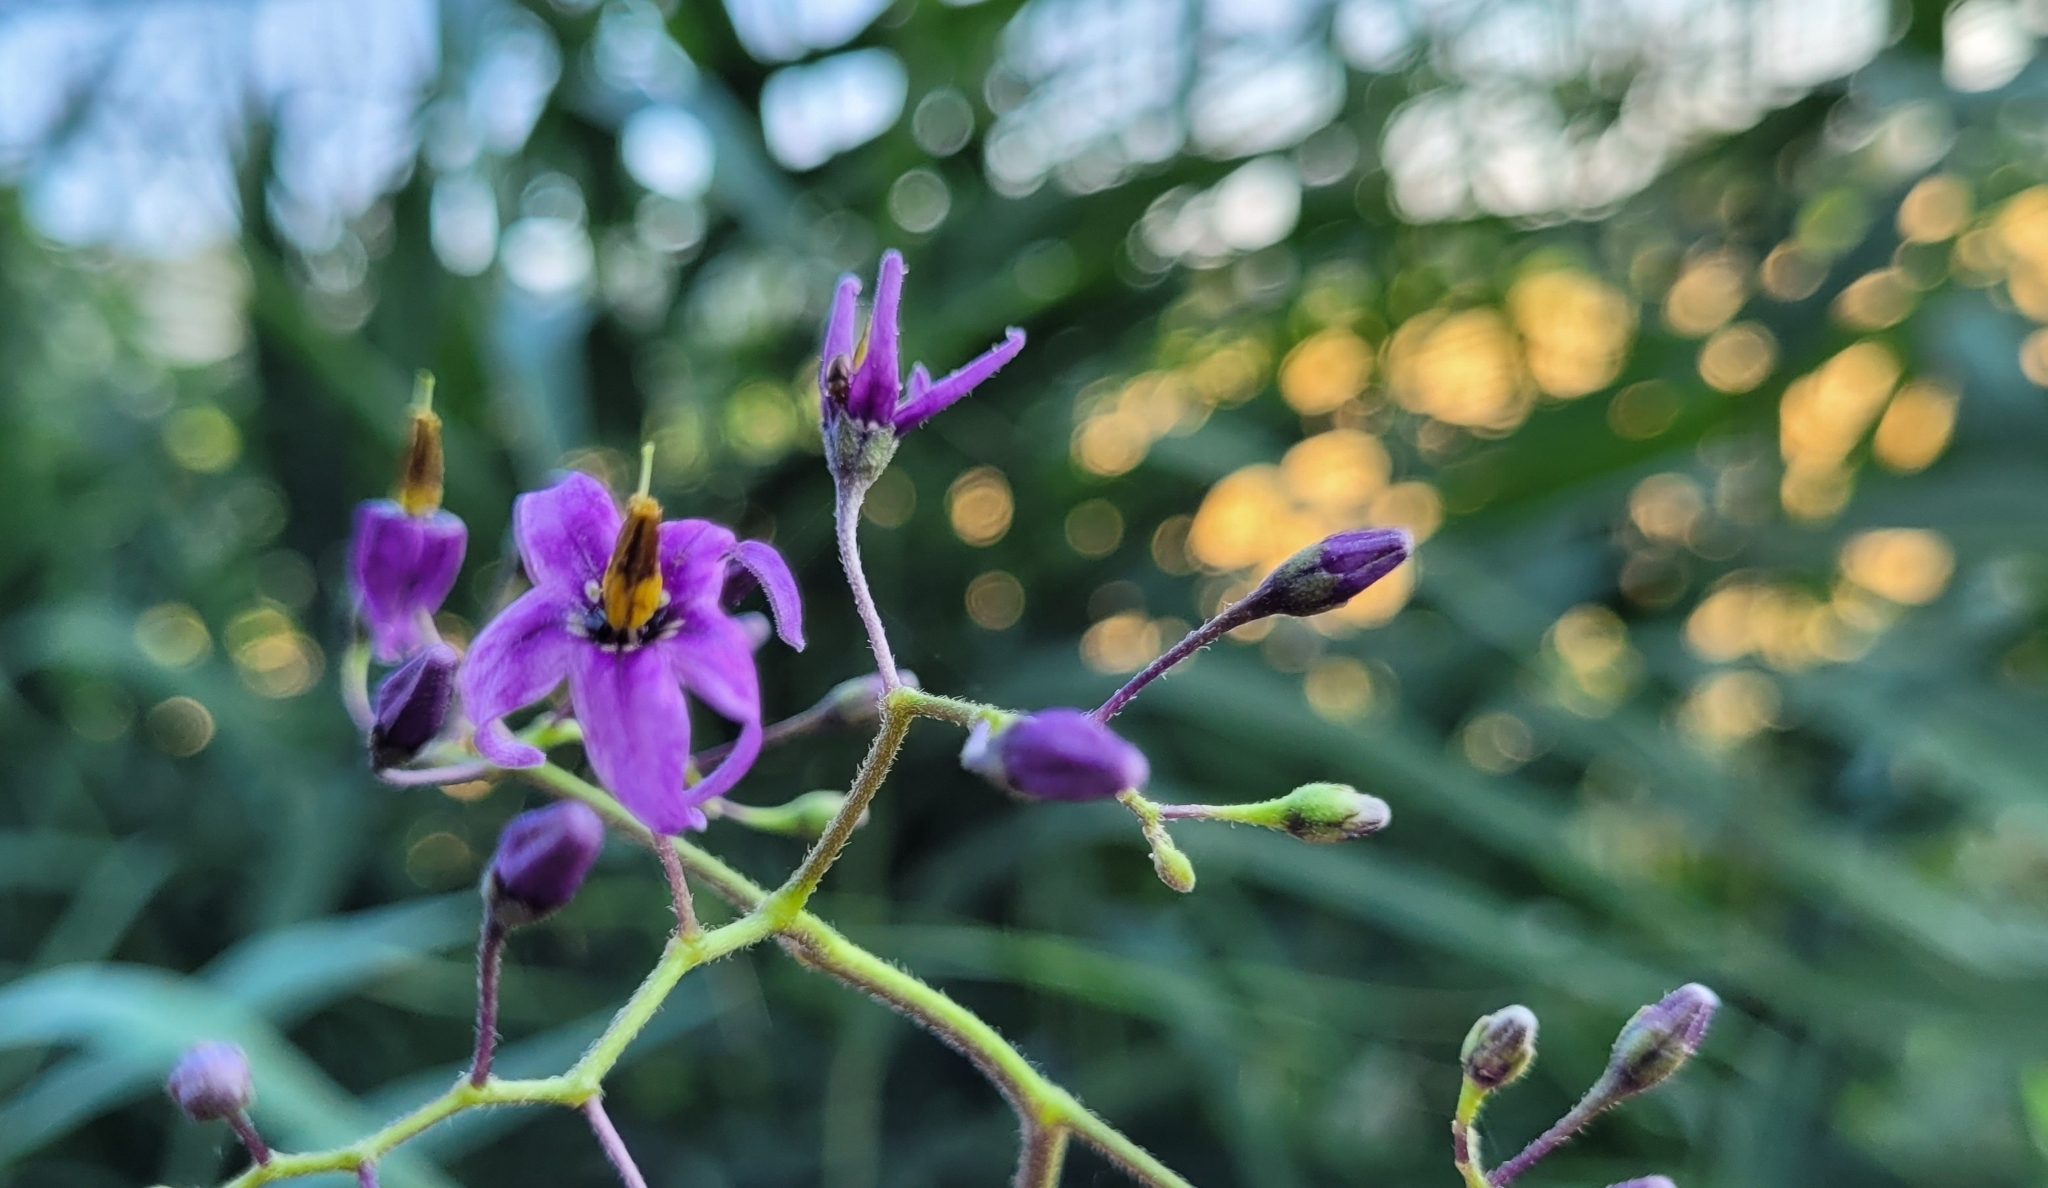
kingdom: Plantae
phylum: Tracheophyta
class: Magnoliopsida
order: Solanales
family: Solanaceae
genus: Solanum
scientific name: Solanum dulcamara
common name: Climbing nightshade
